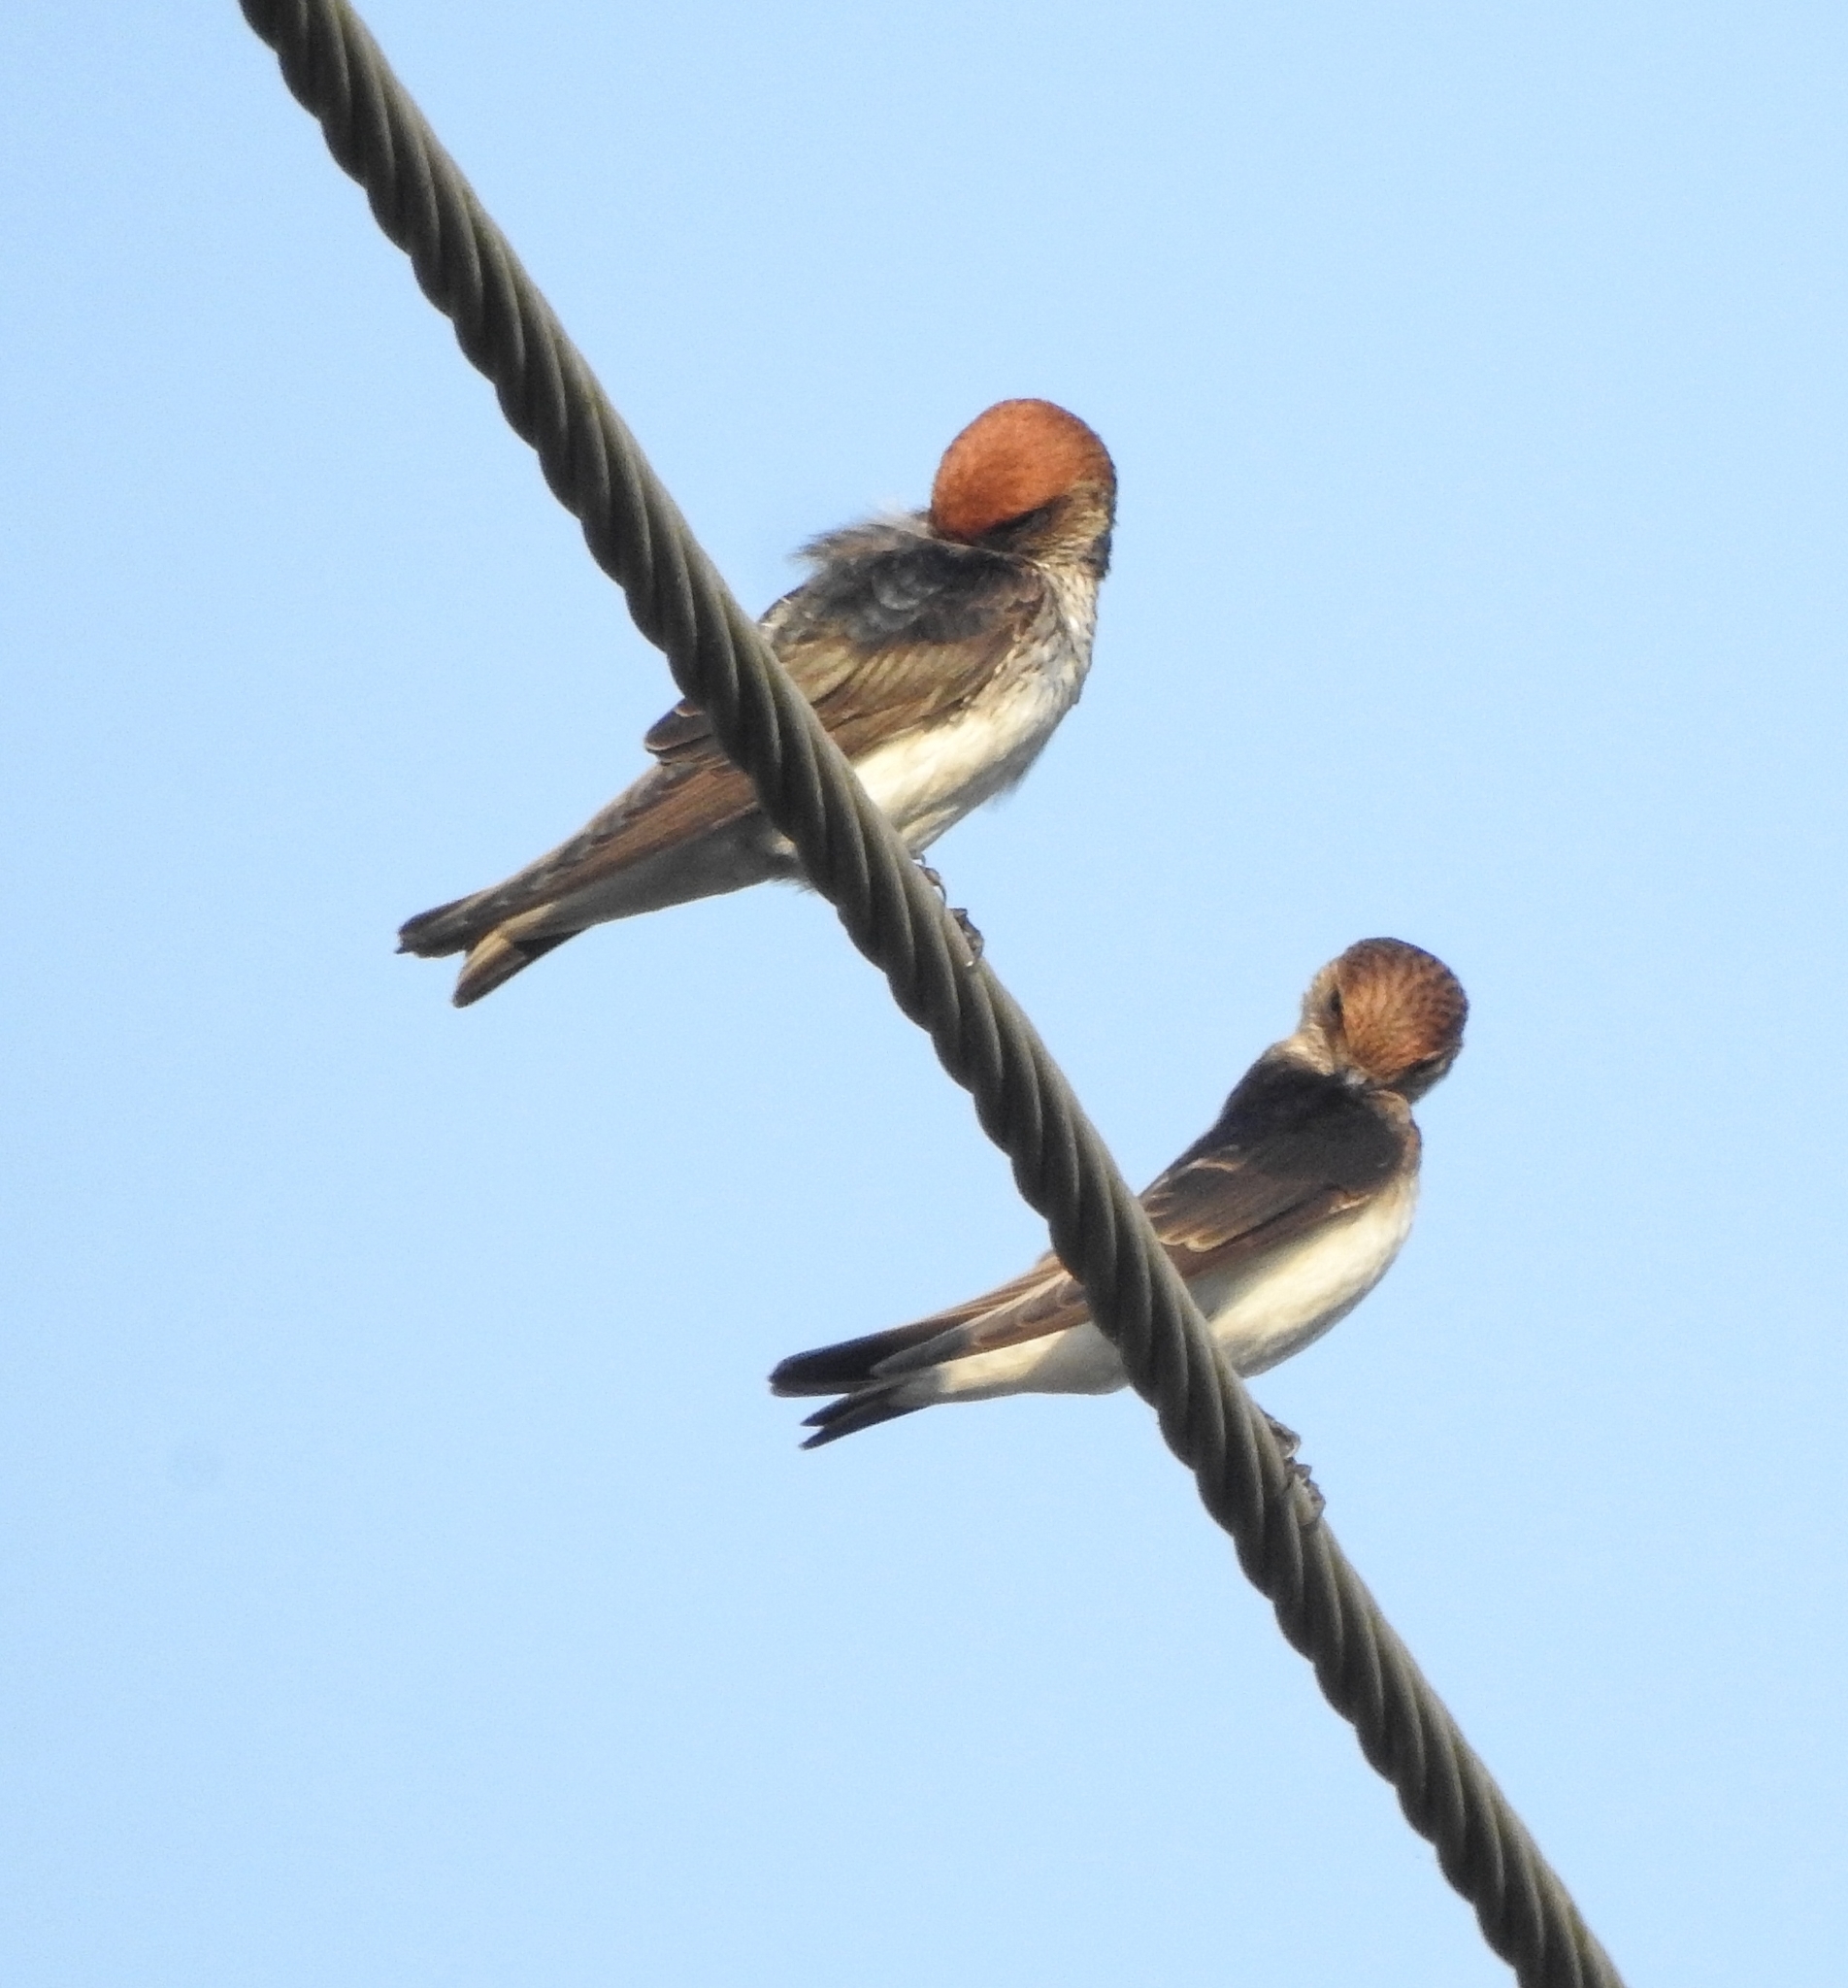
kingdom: Animalia
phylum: Chordata
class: Aves
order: Passeriformes
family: Hirundinidae
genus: Petrochelidon
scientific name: Petrochelidon fluvicola
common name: Streak-throated swallow
